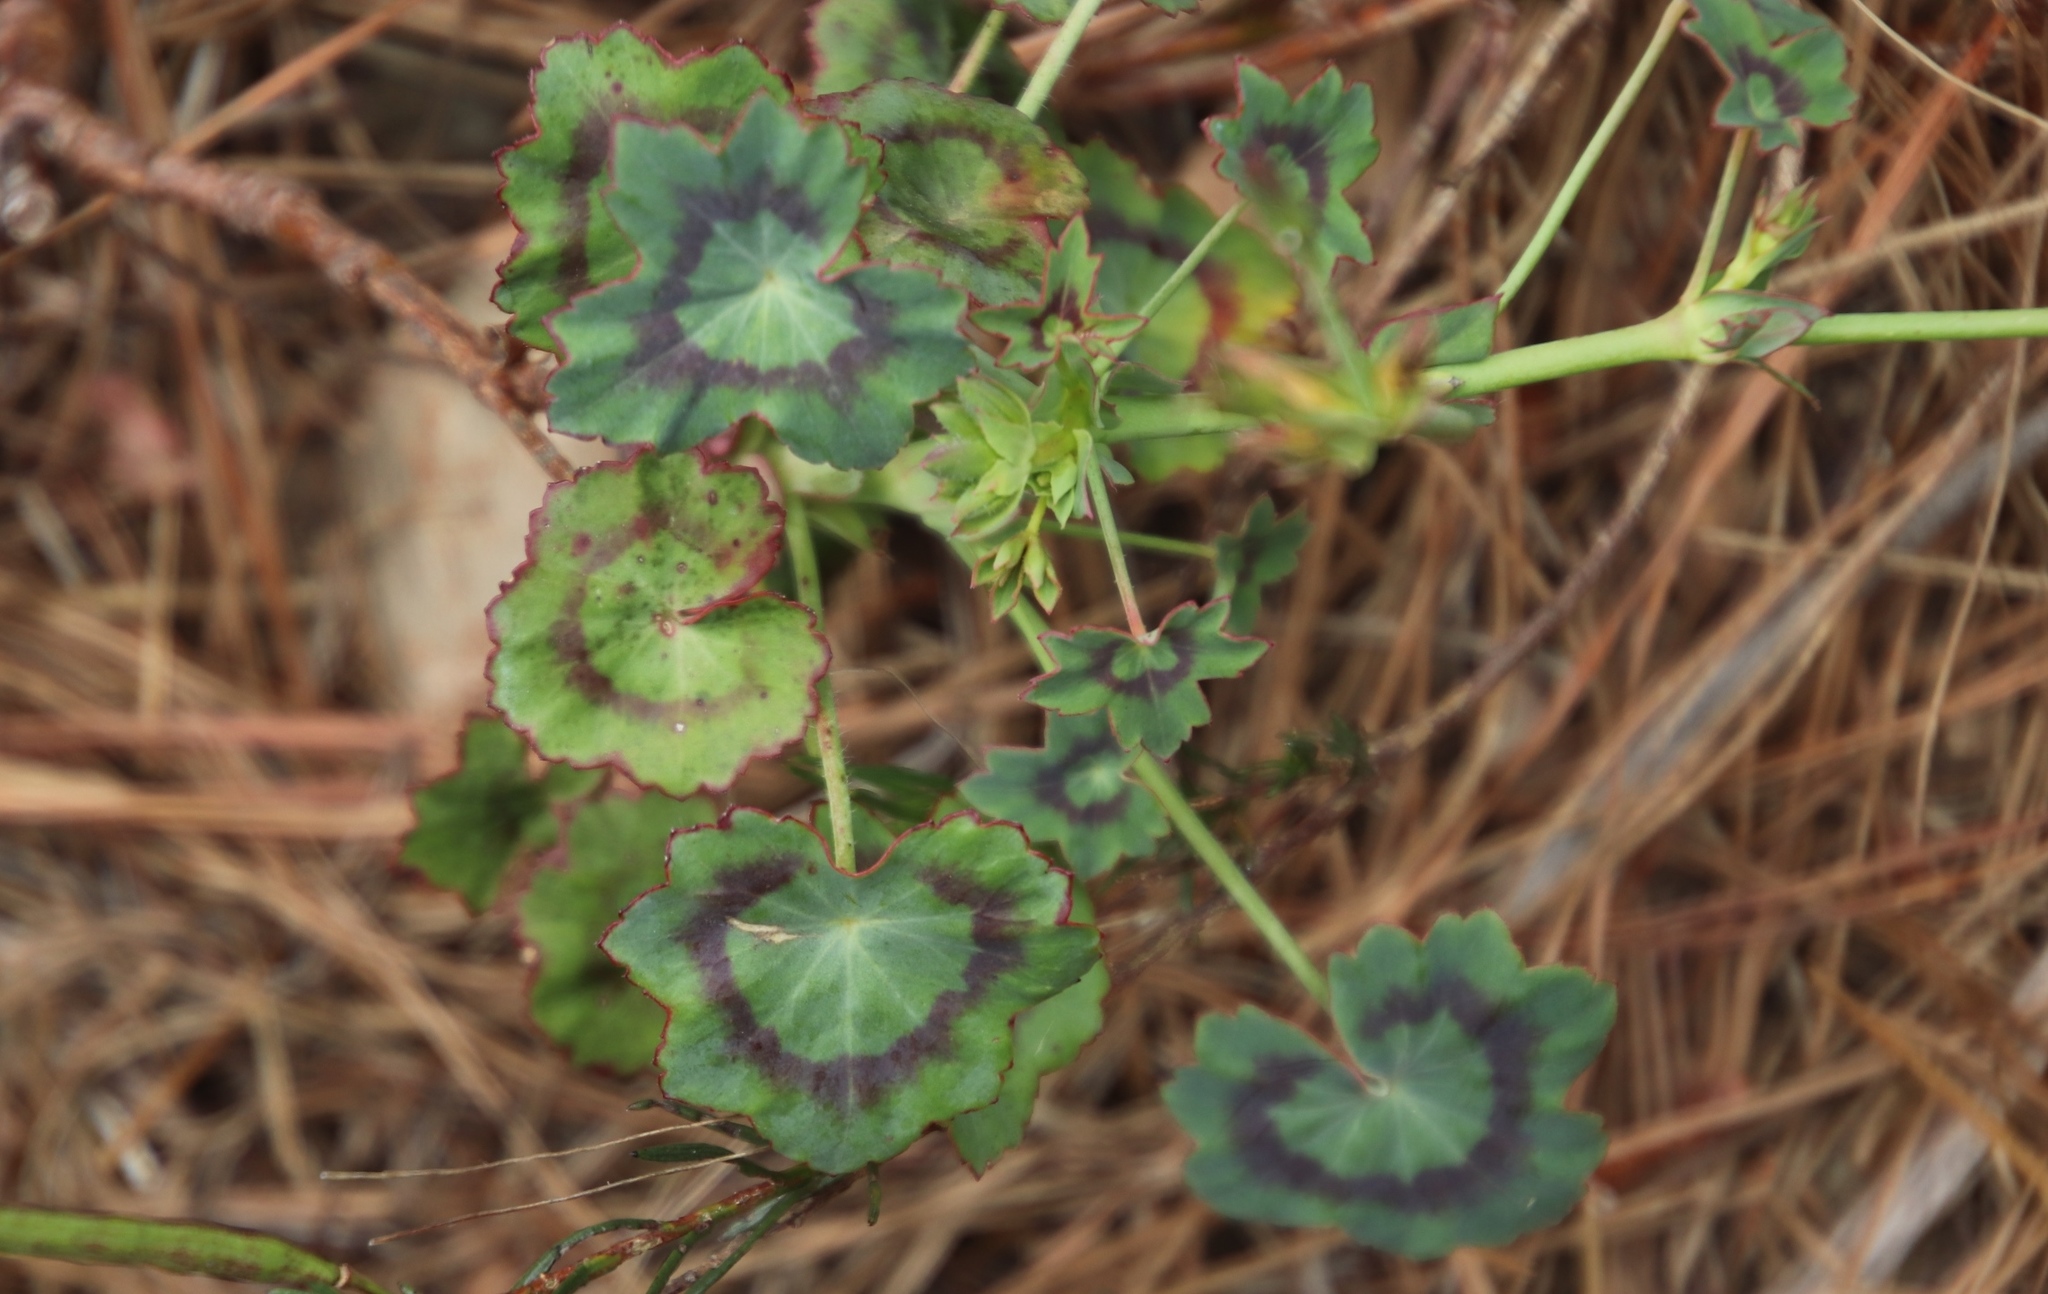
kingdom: Plantae
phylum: Tracheophyta
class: Magnoliopsida
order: Geraniales
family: Geraniaceae
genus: Pelargonium
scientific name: Pelargonium tabulare
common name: Table mountain pelargonium
